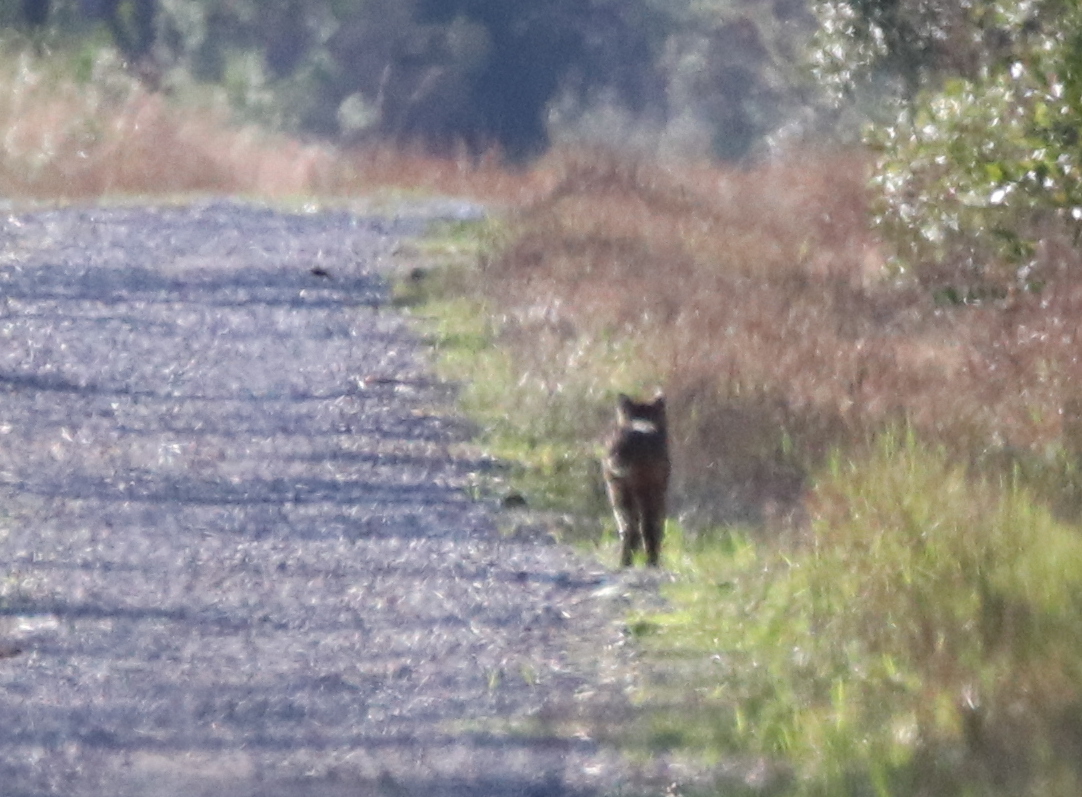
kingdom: Animalia
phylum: Chordata
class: Mammalia
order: Carnivora
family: Felidae
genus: Lynx
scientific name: Lynx rufus
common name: Bobcat
